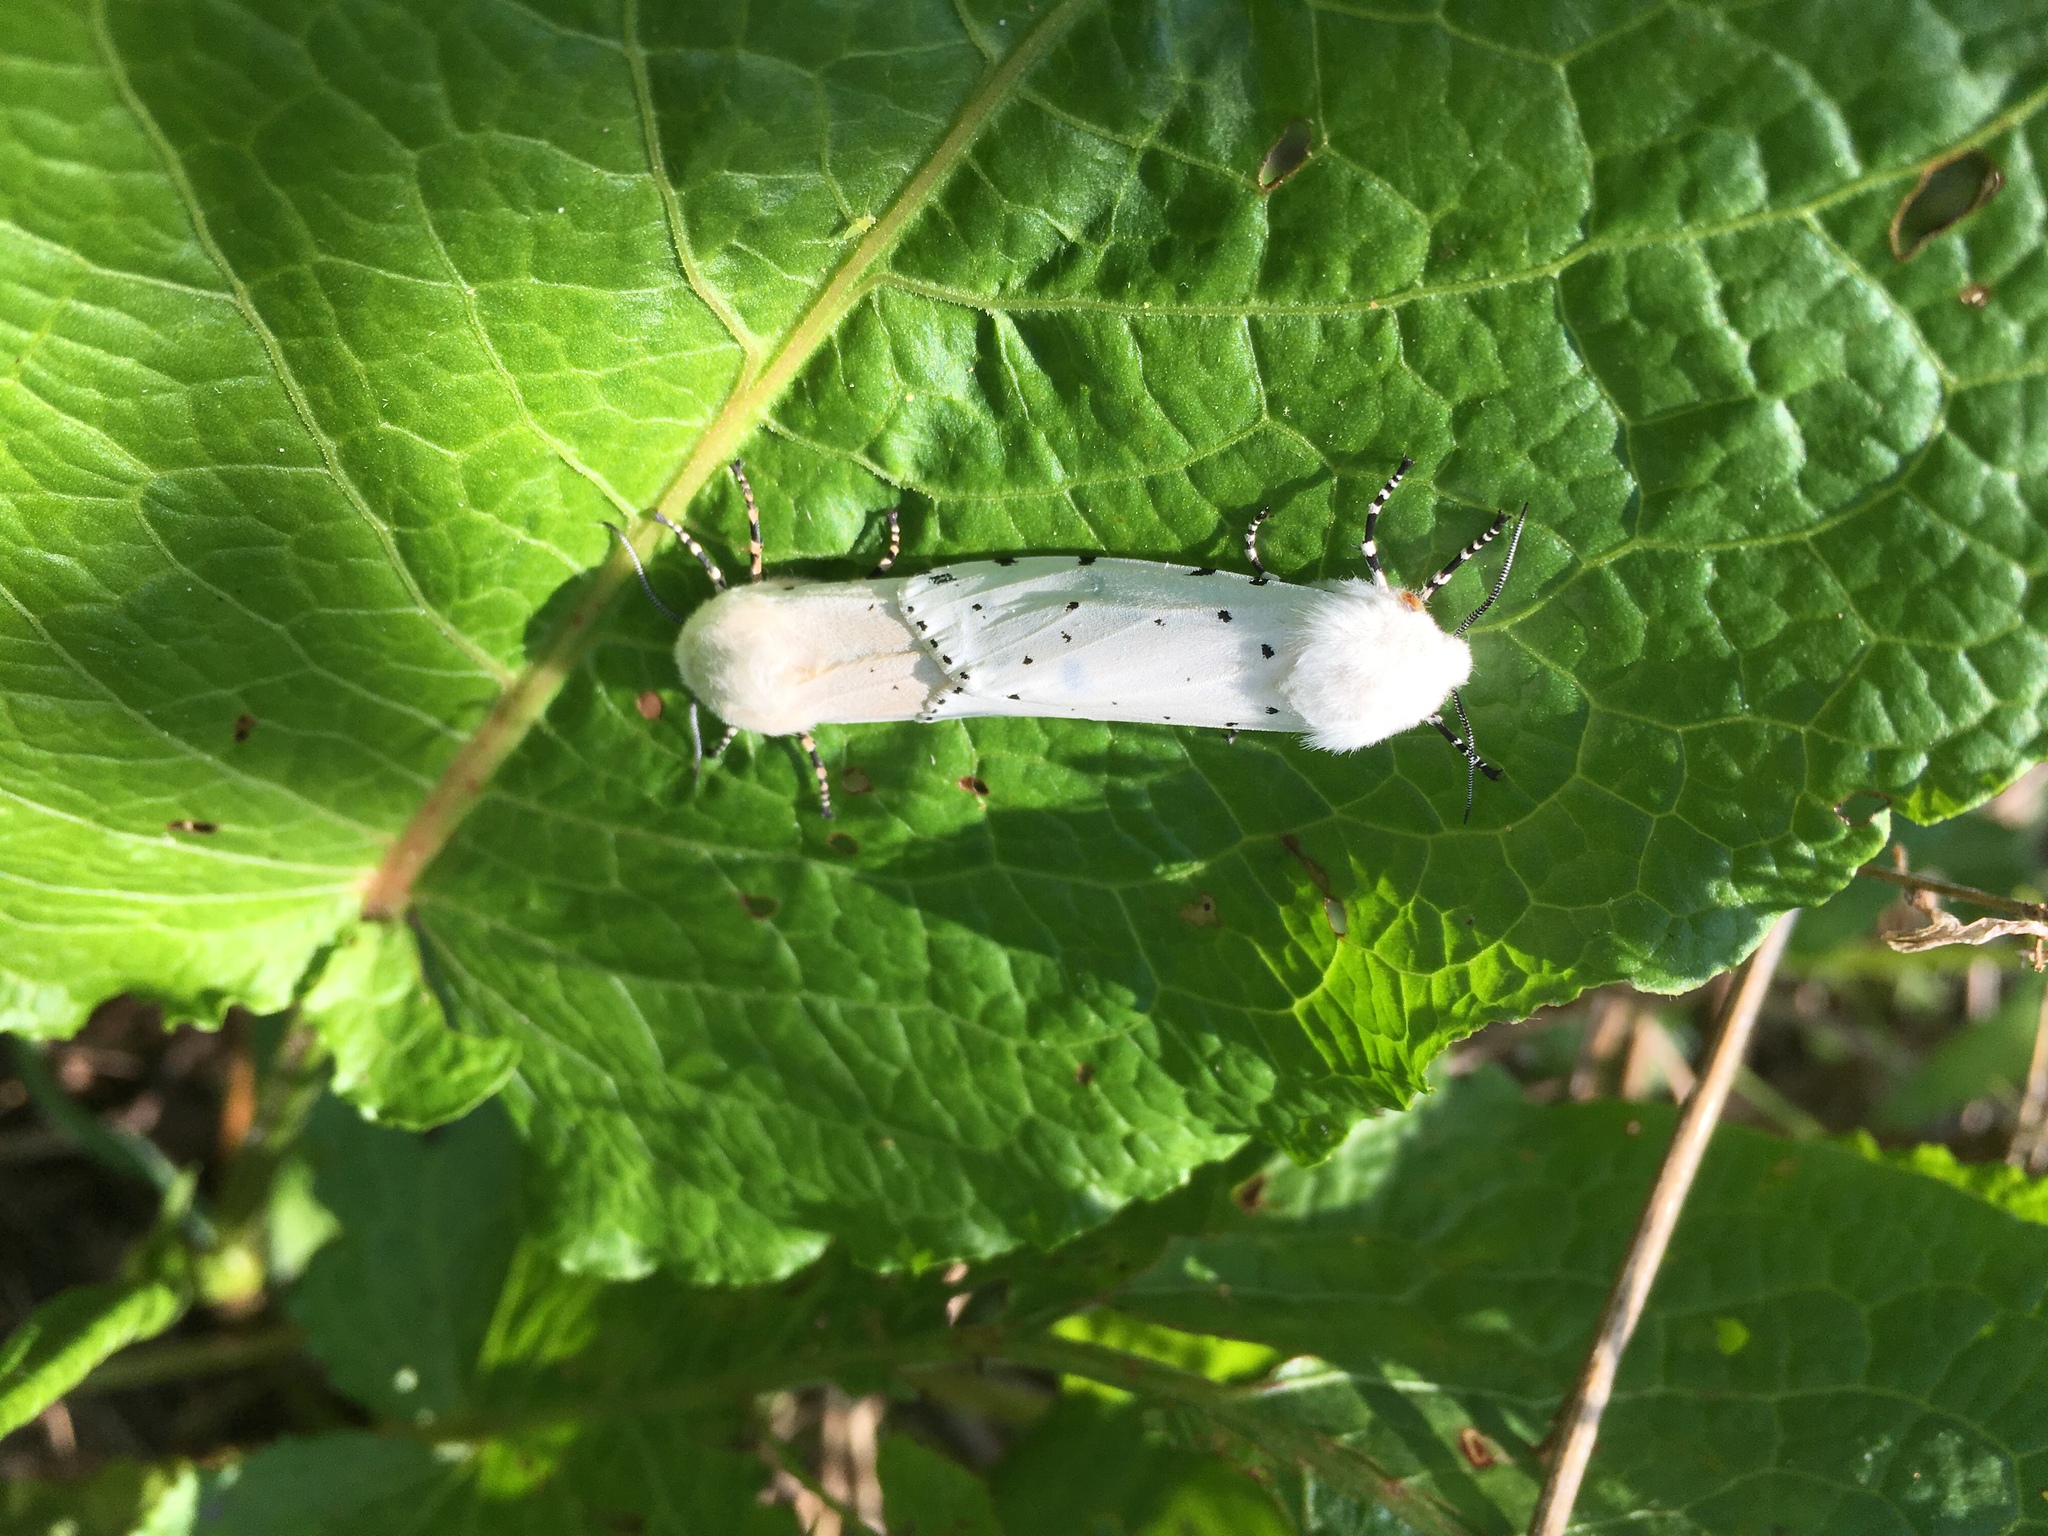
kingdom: Animalia
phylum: Arthropoda
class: Insecta
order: Lepidoptera
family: Erebidae
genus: Estigmene
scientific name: Estigmene acrea
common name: Salt marsh moth
